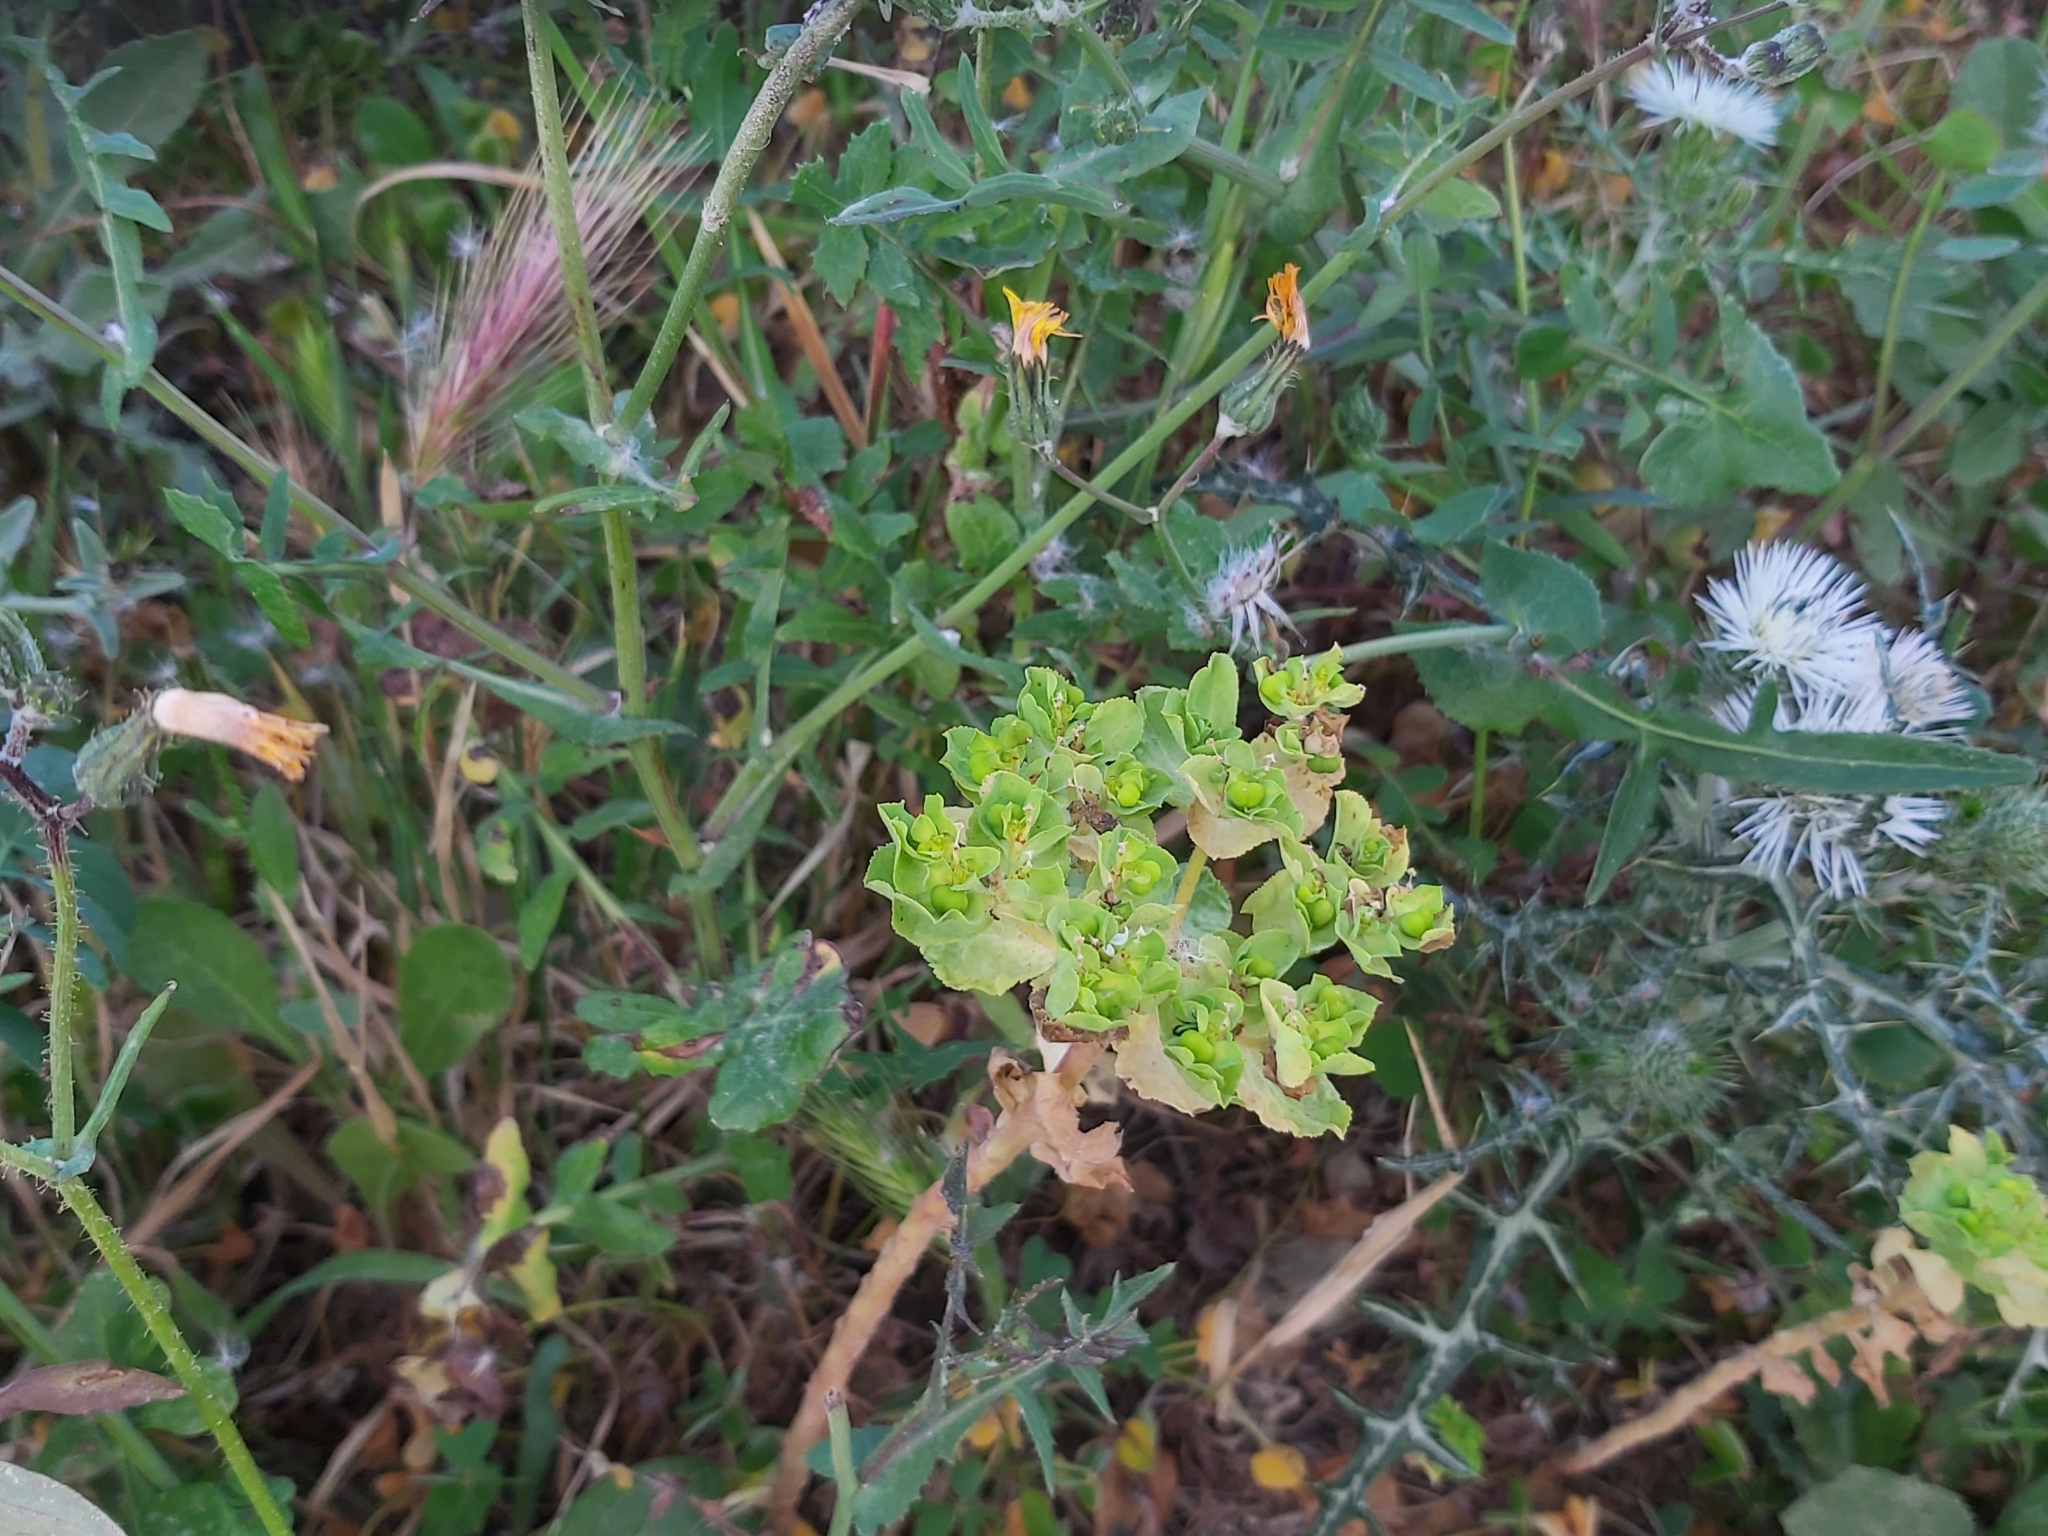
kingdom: Plantae
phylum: Tracheophyta
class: Magnoliopsida
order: Malpighiales
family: Euphorbiaceae
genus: Euphorbia
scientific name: Euphorbia helioscopia
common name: Sun spurge
